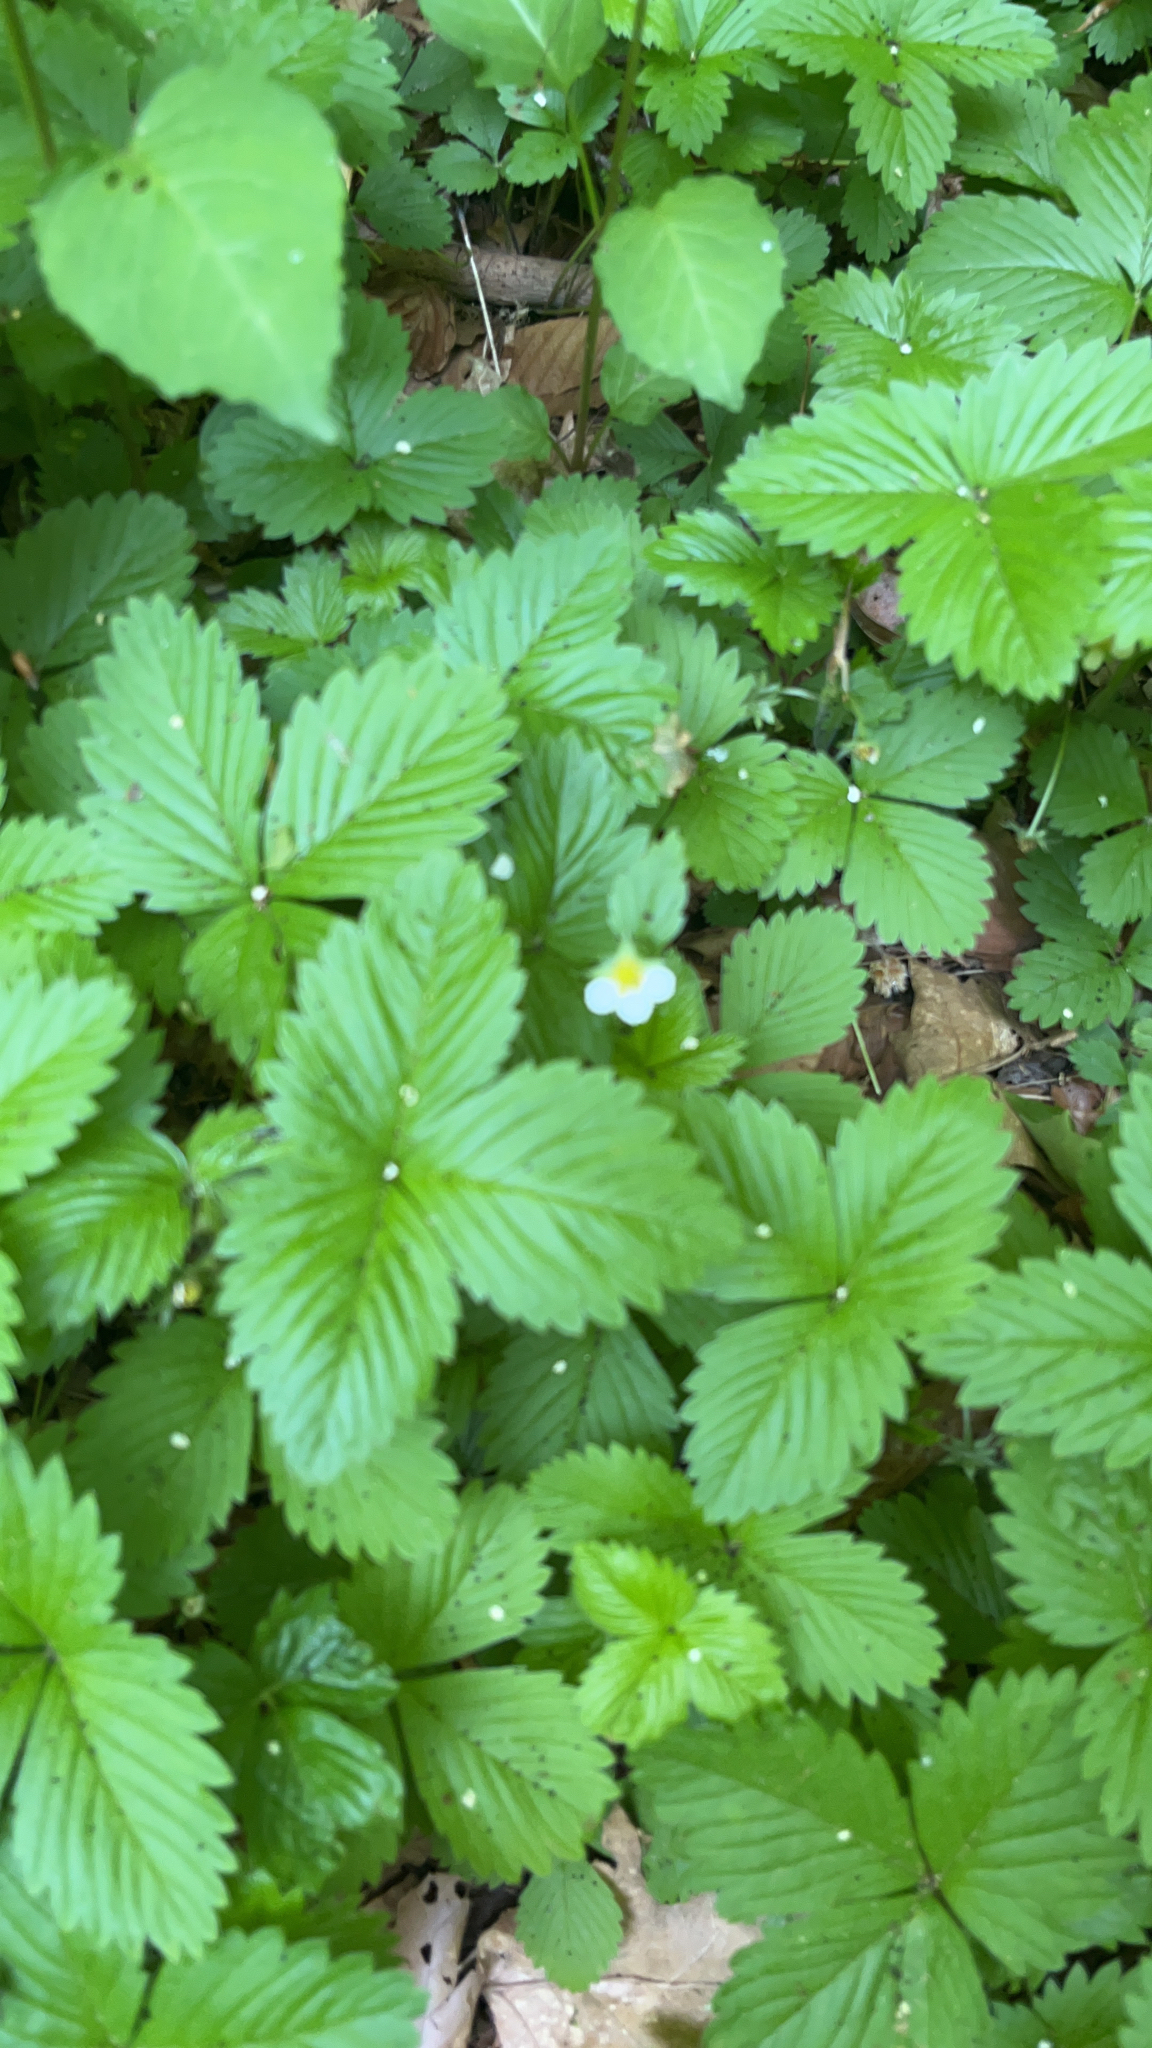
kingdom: Plantae
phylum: Tracheophyta
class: Magnoliopsida
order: Rosales
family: Rosaceae
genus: Fragaria
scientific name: Fragaria vesca
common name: Wild strawberry
